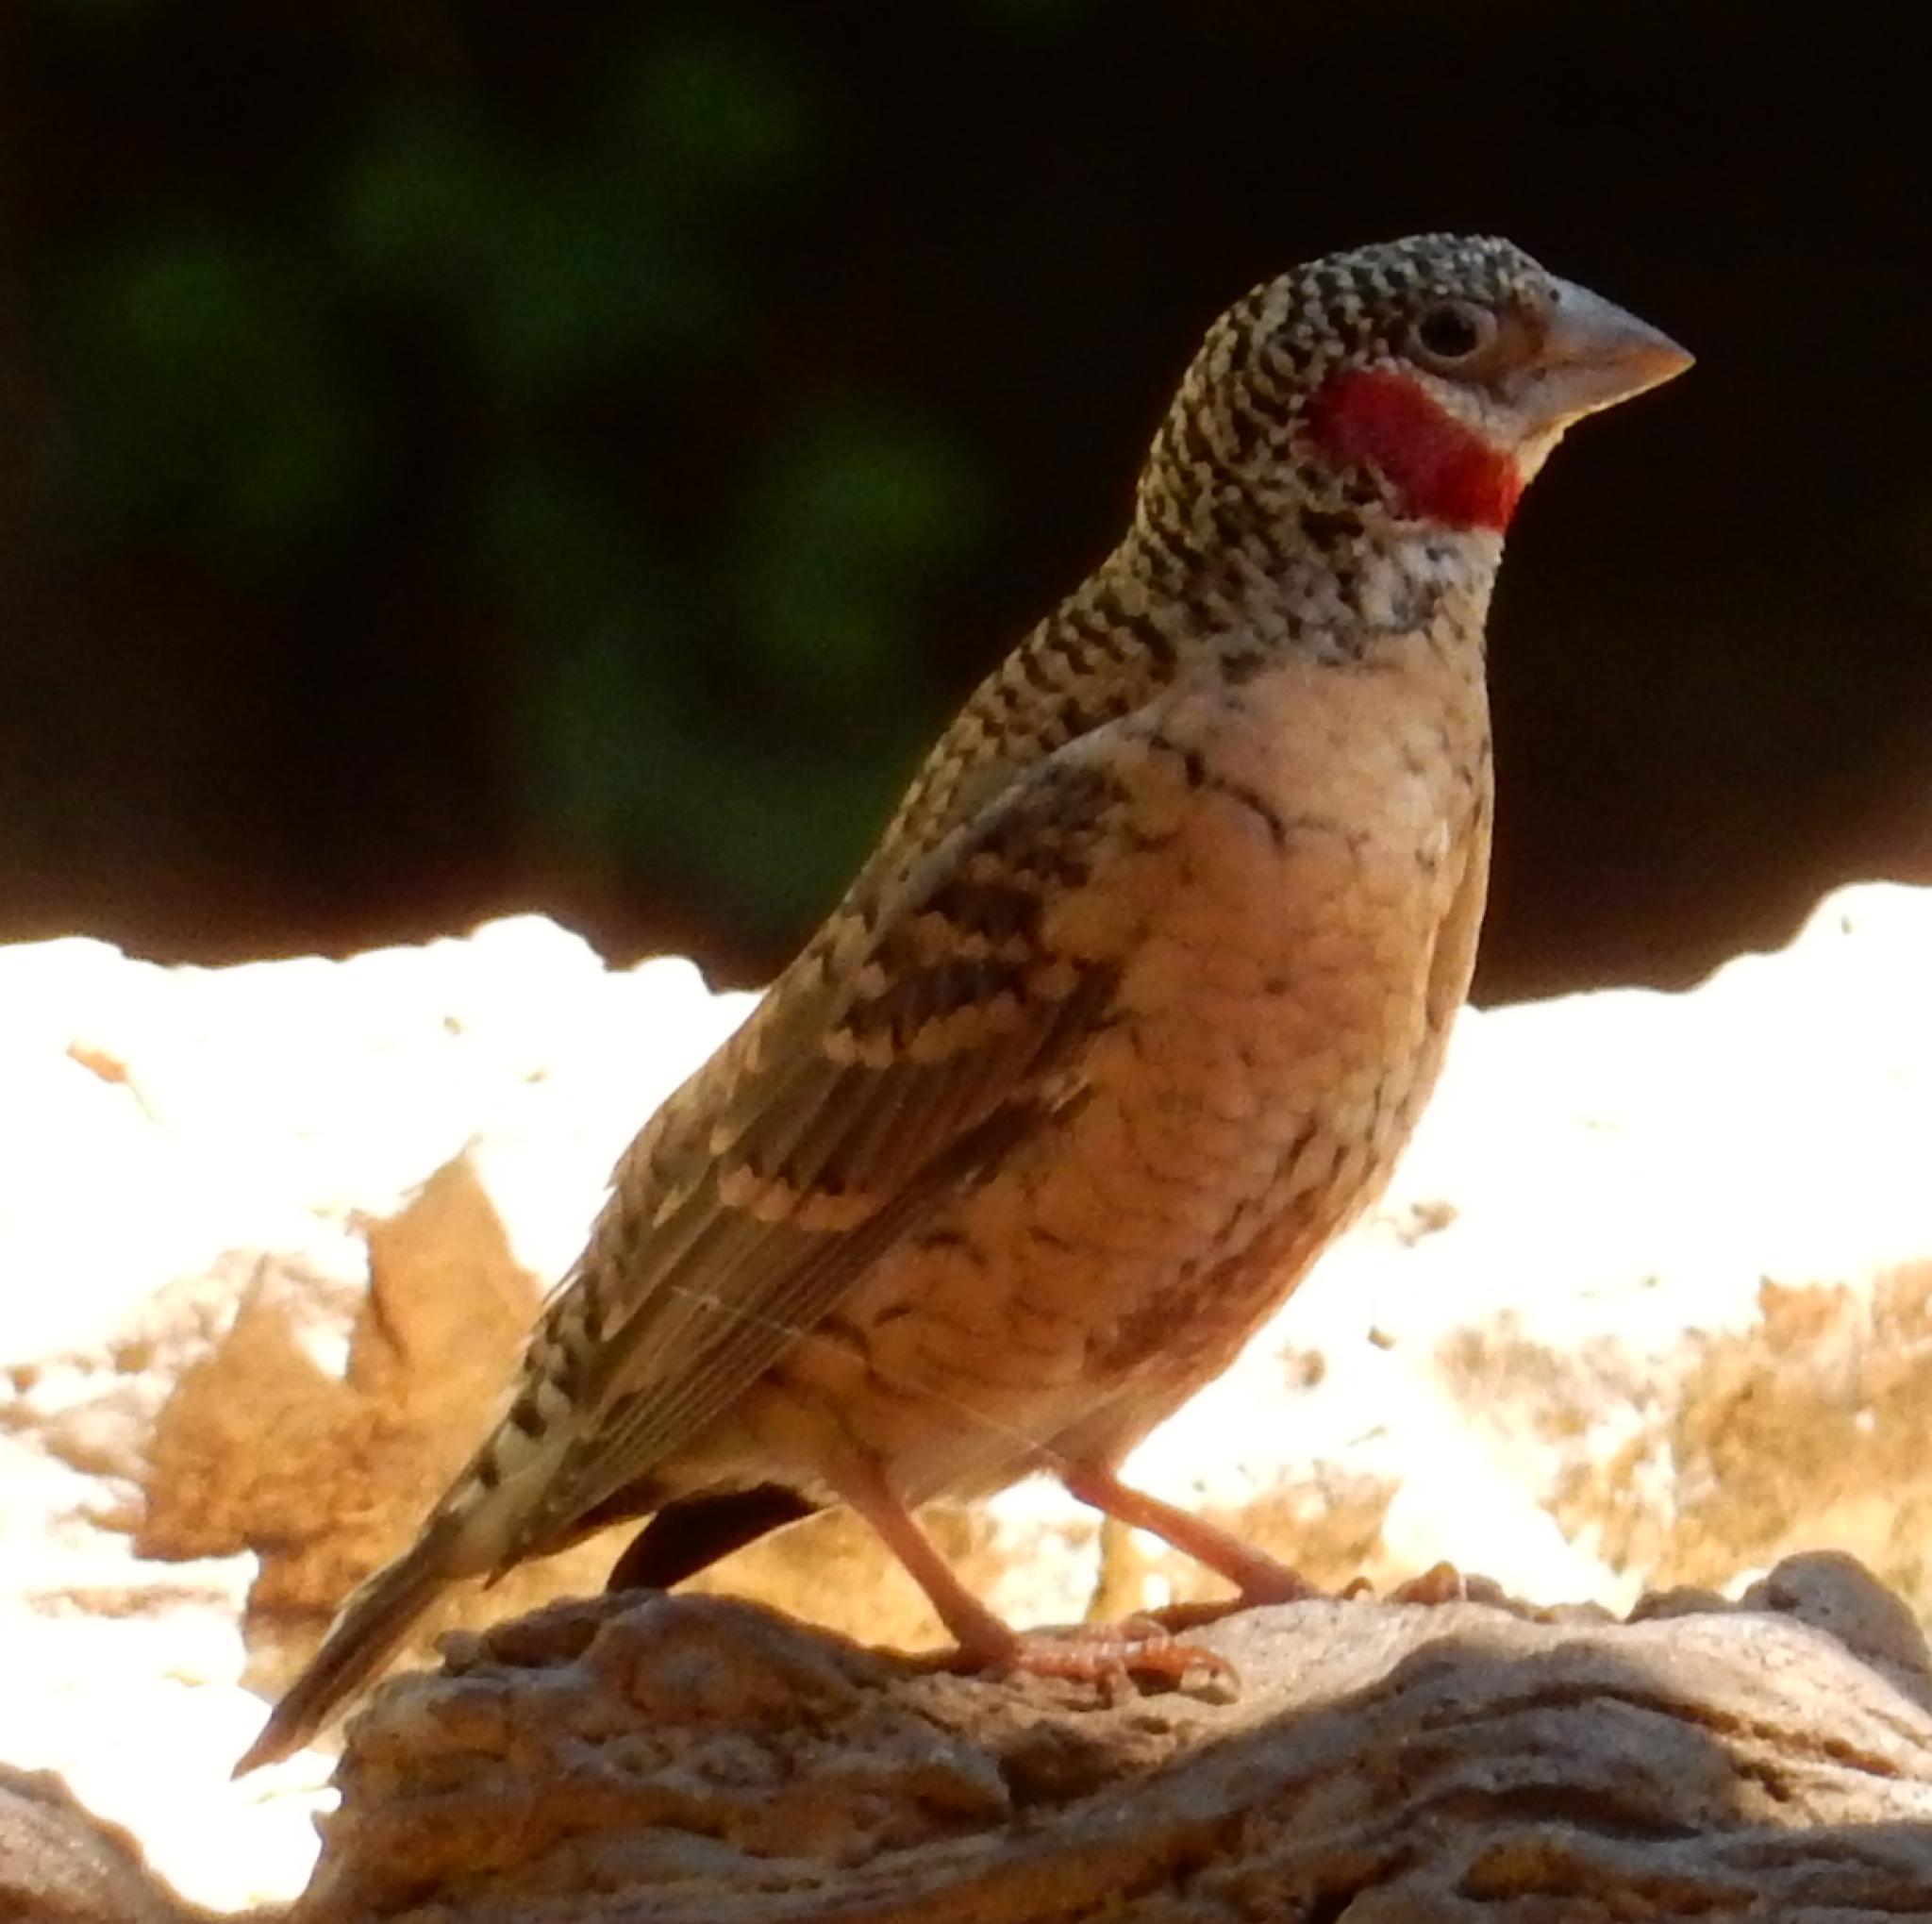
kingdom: Animalia
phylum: Chordata
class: Aves
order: Passeriformes
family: Estrildidae
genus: Amadina
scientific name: Amadina fasciata
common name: Cut-throat finch
